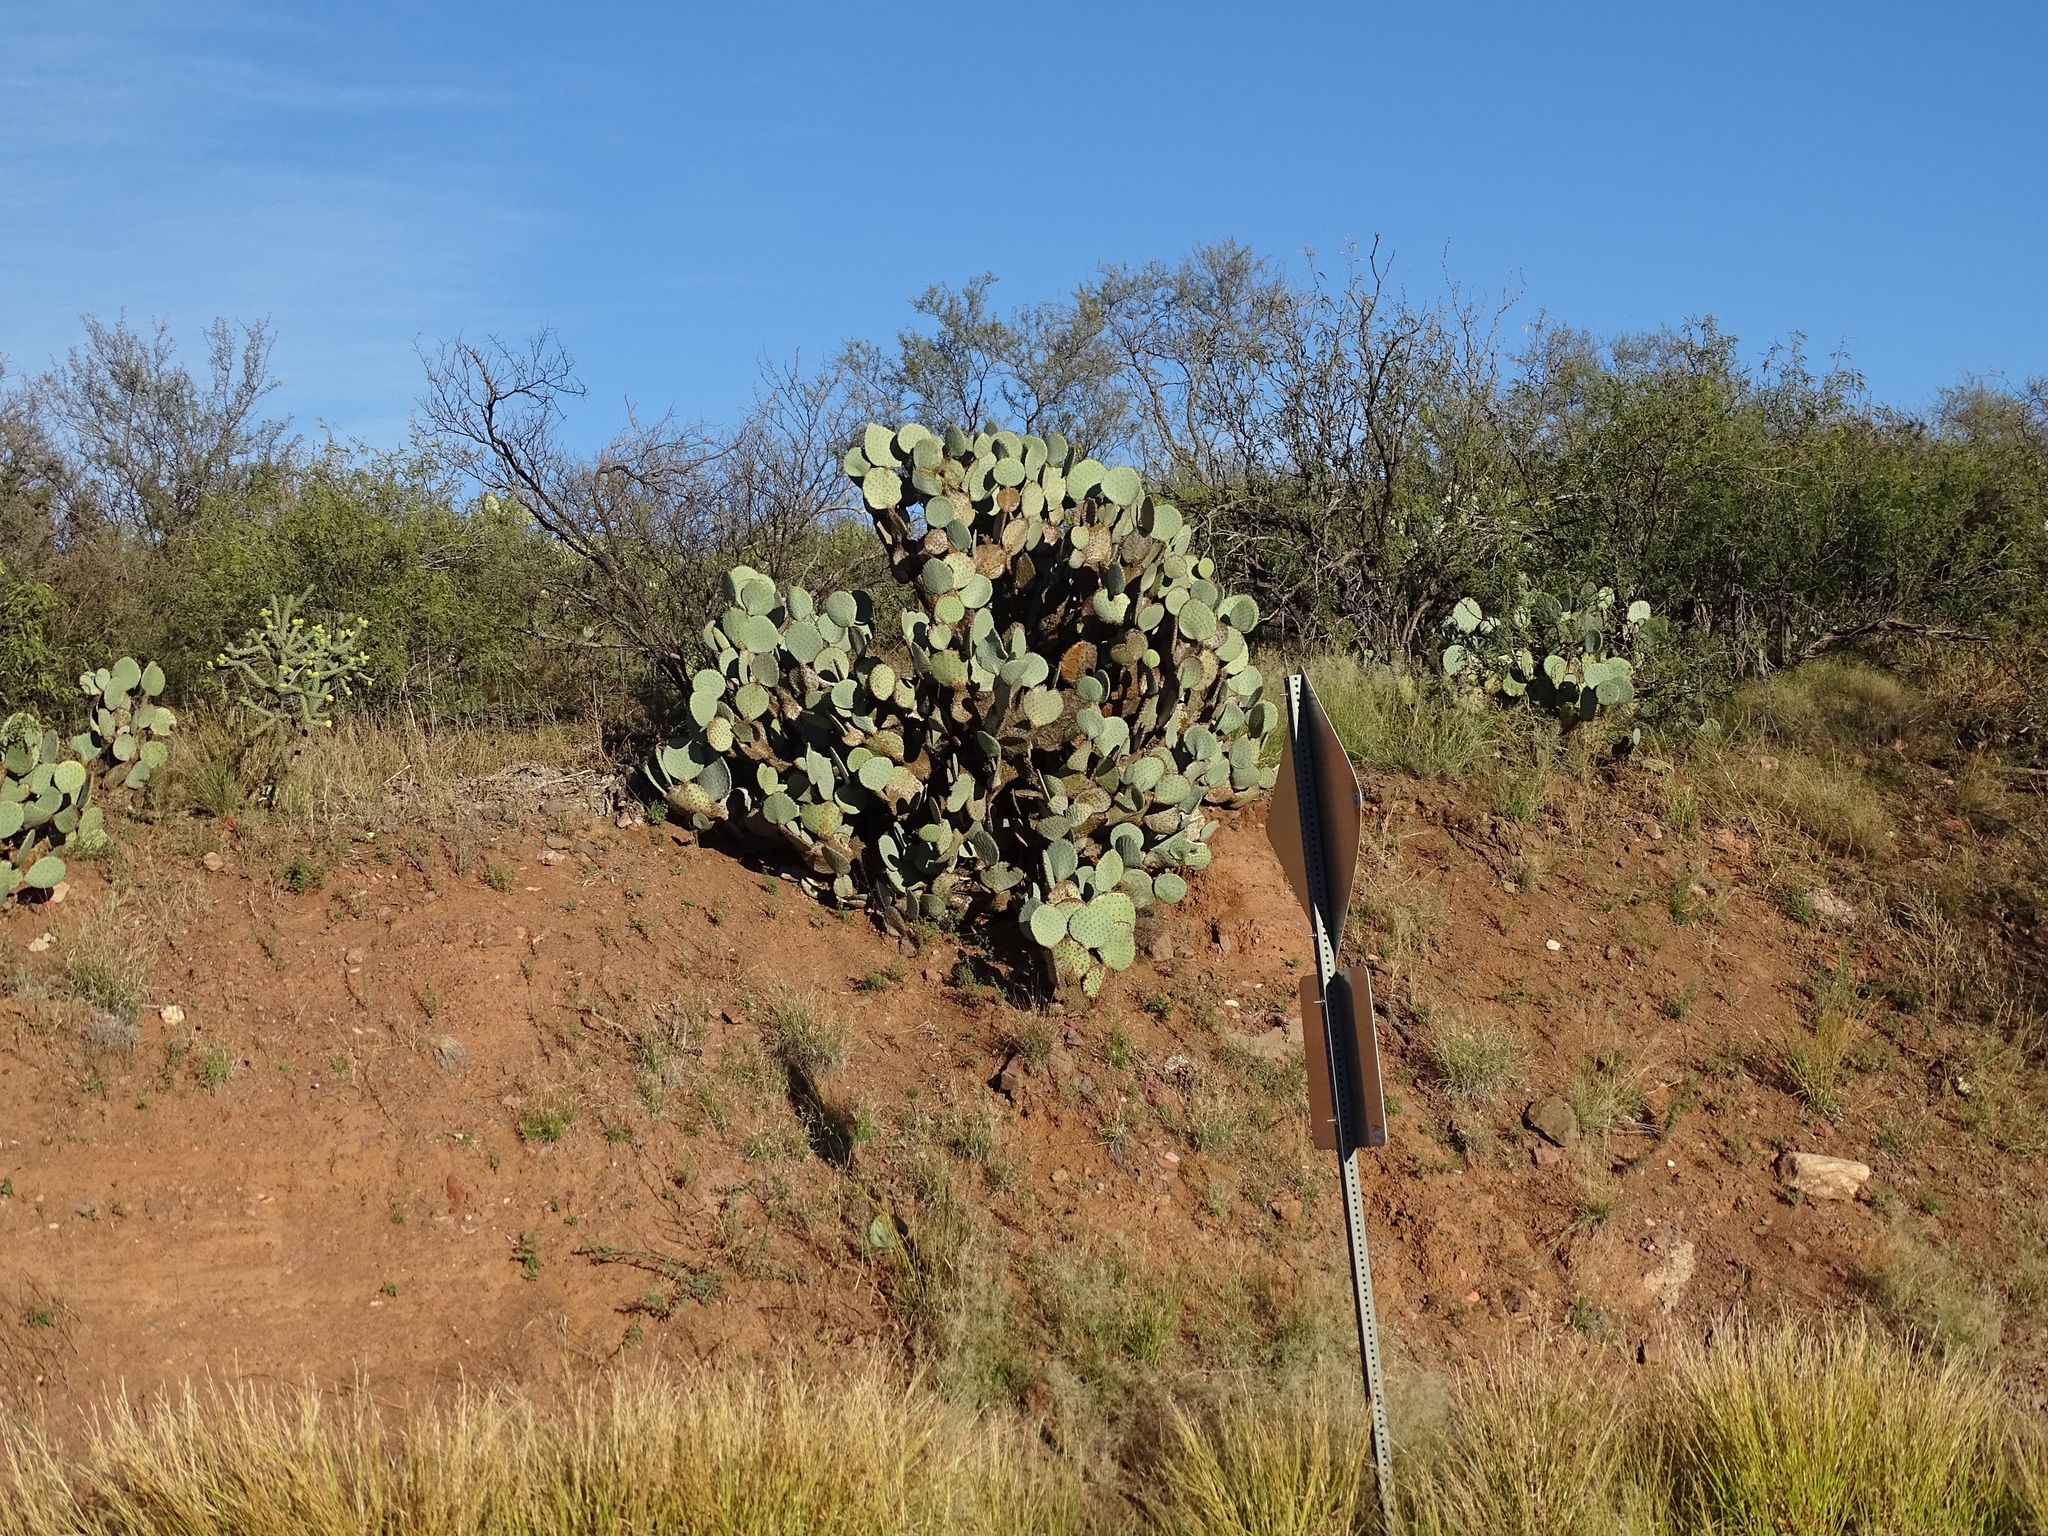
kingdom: Plantae
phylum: Tracheophyta
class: Magnoliopsida
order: Caryophyllales
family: Cactaceae
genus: Opuntia
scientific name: Opuntia chlorotica
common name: Dollar-joint prickly-pear
